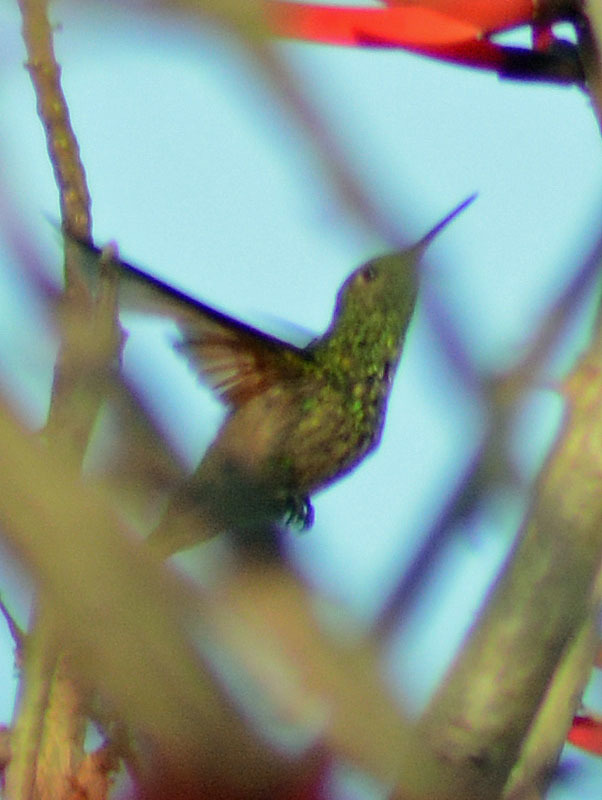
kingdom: Animalia
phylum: Chordata
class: Aves
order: Apodiformes
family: Trochilidae
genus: Saucerottia
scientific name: Saucerottia beryllina
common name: Berylline hummingbird
